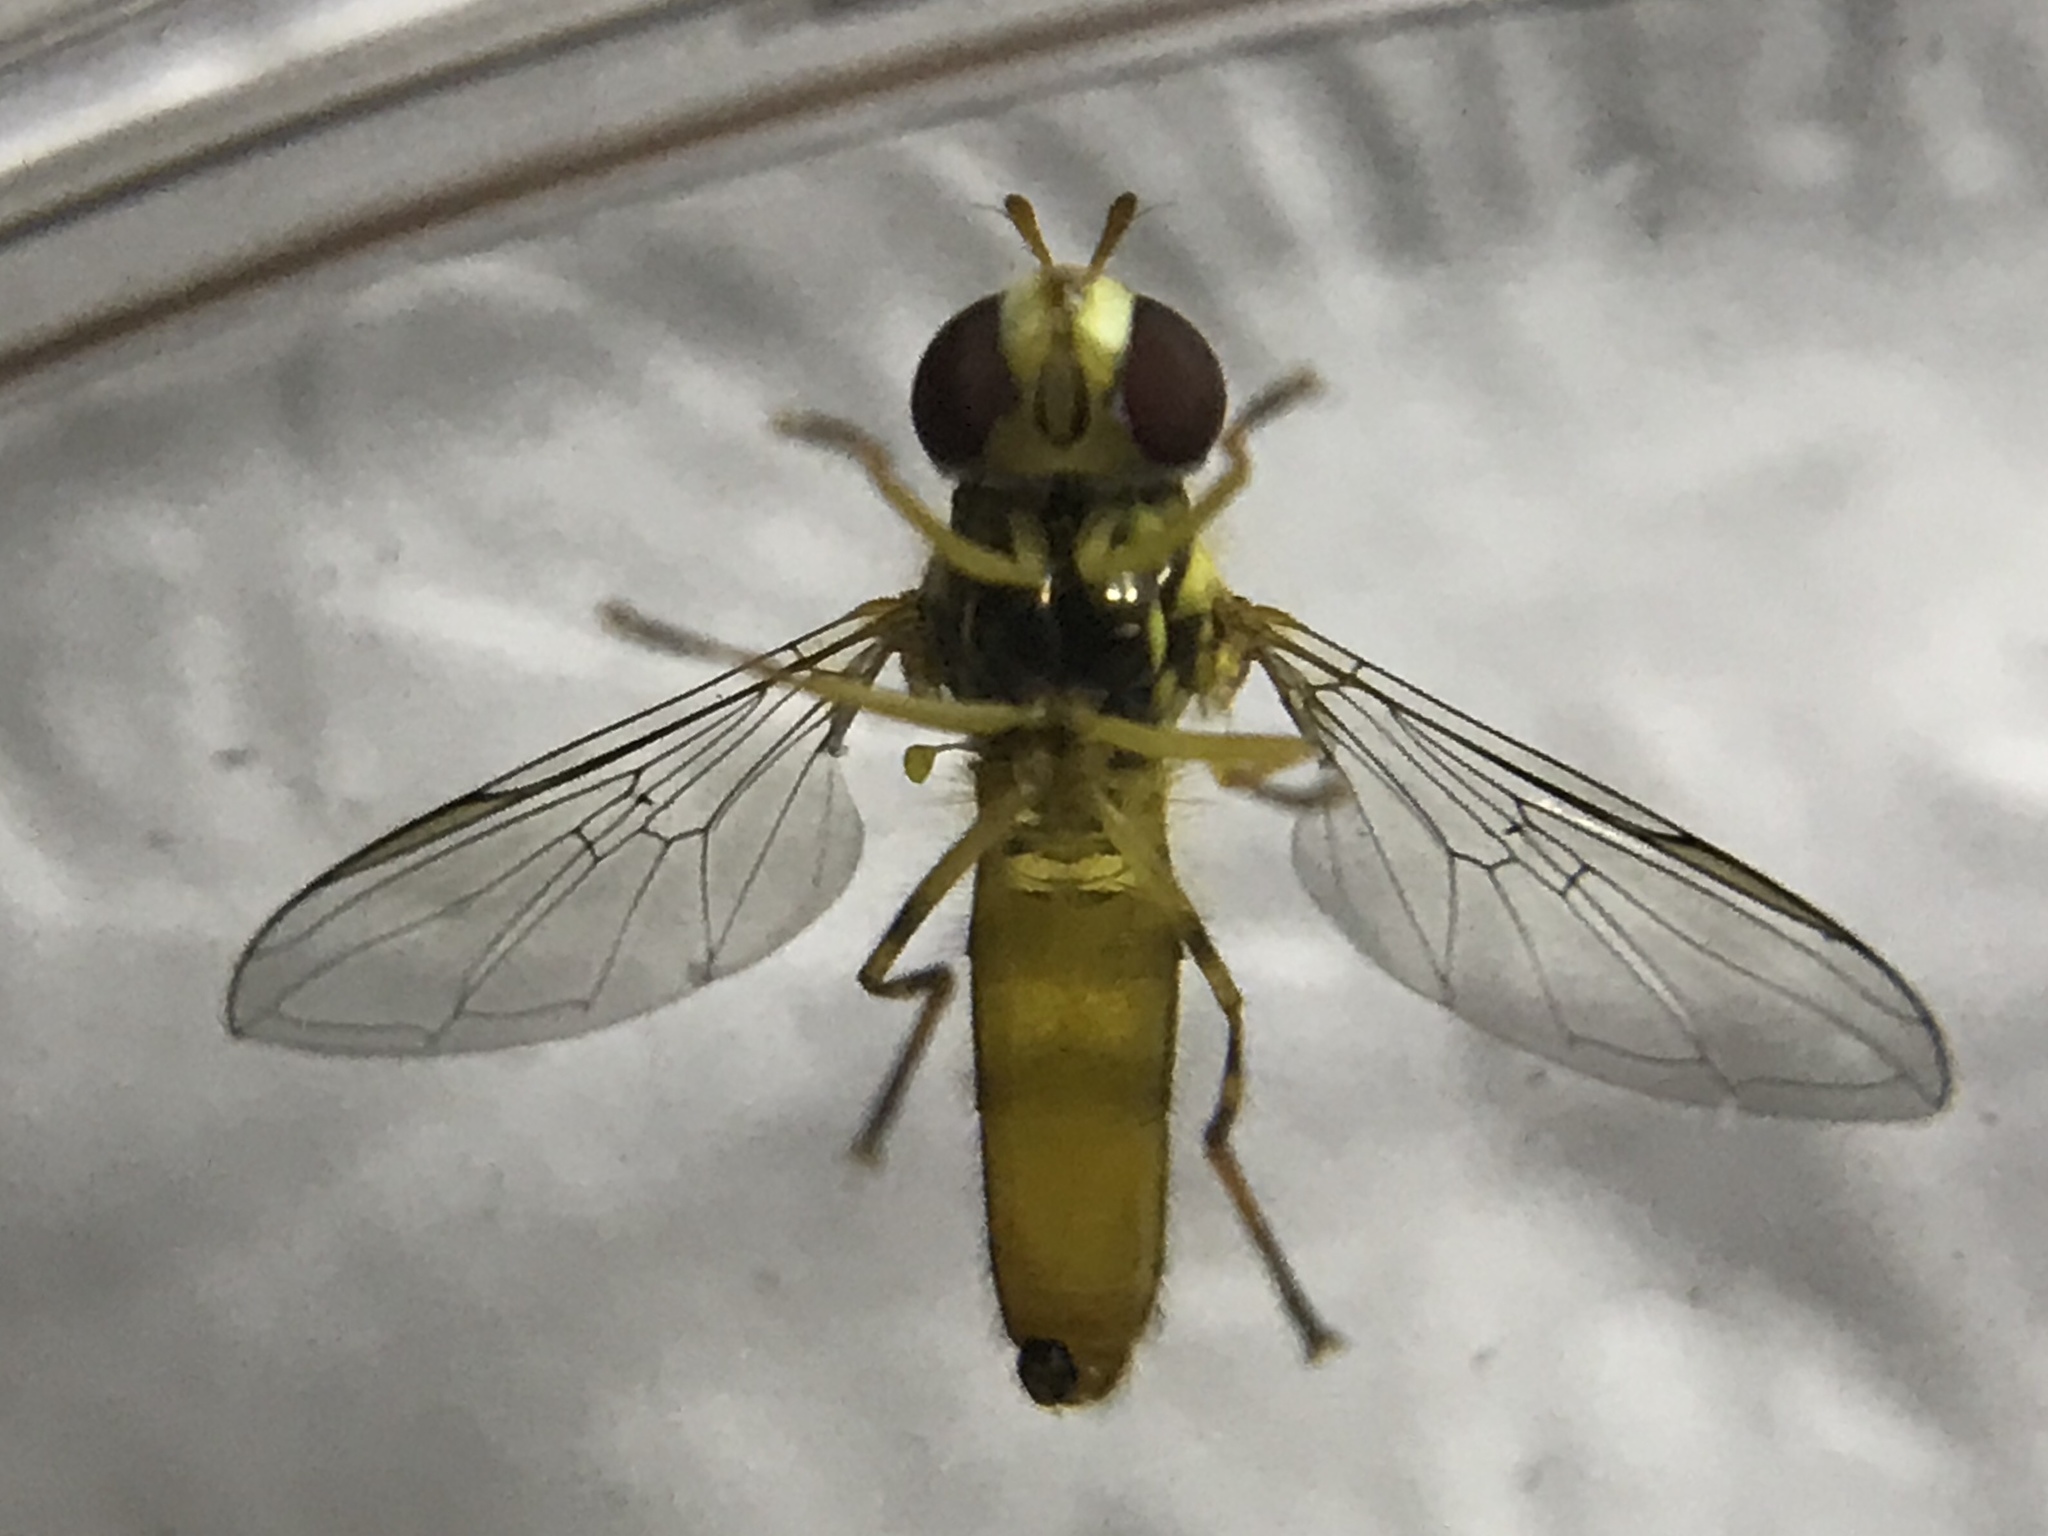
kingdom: Animalia
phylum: Arthropoda
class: Insecta
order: Diptera
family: Syrphidae
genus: Allograpta
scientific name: Allograpta obliqua
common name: Common oblique syrphid
